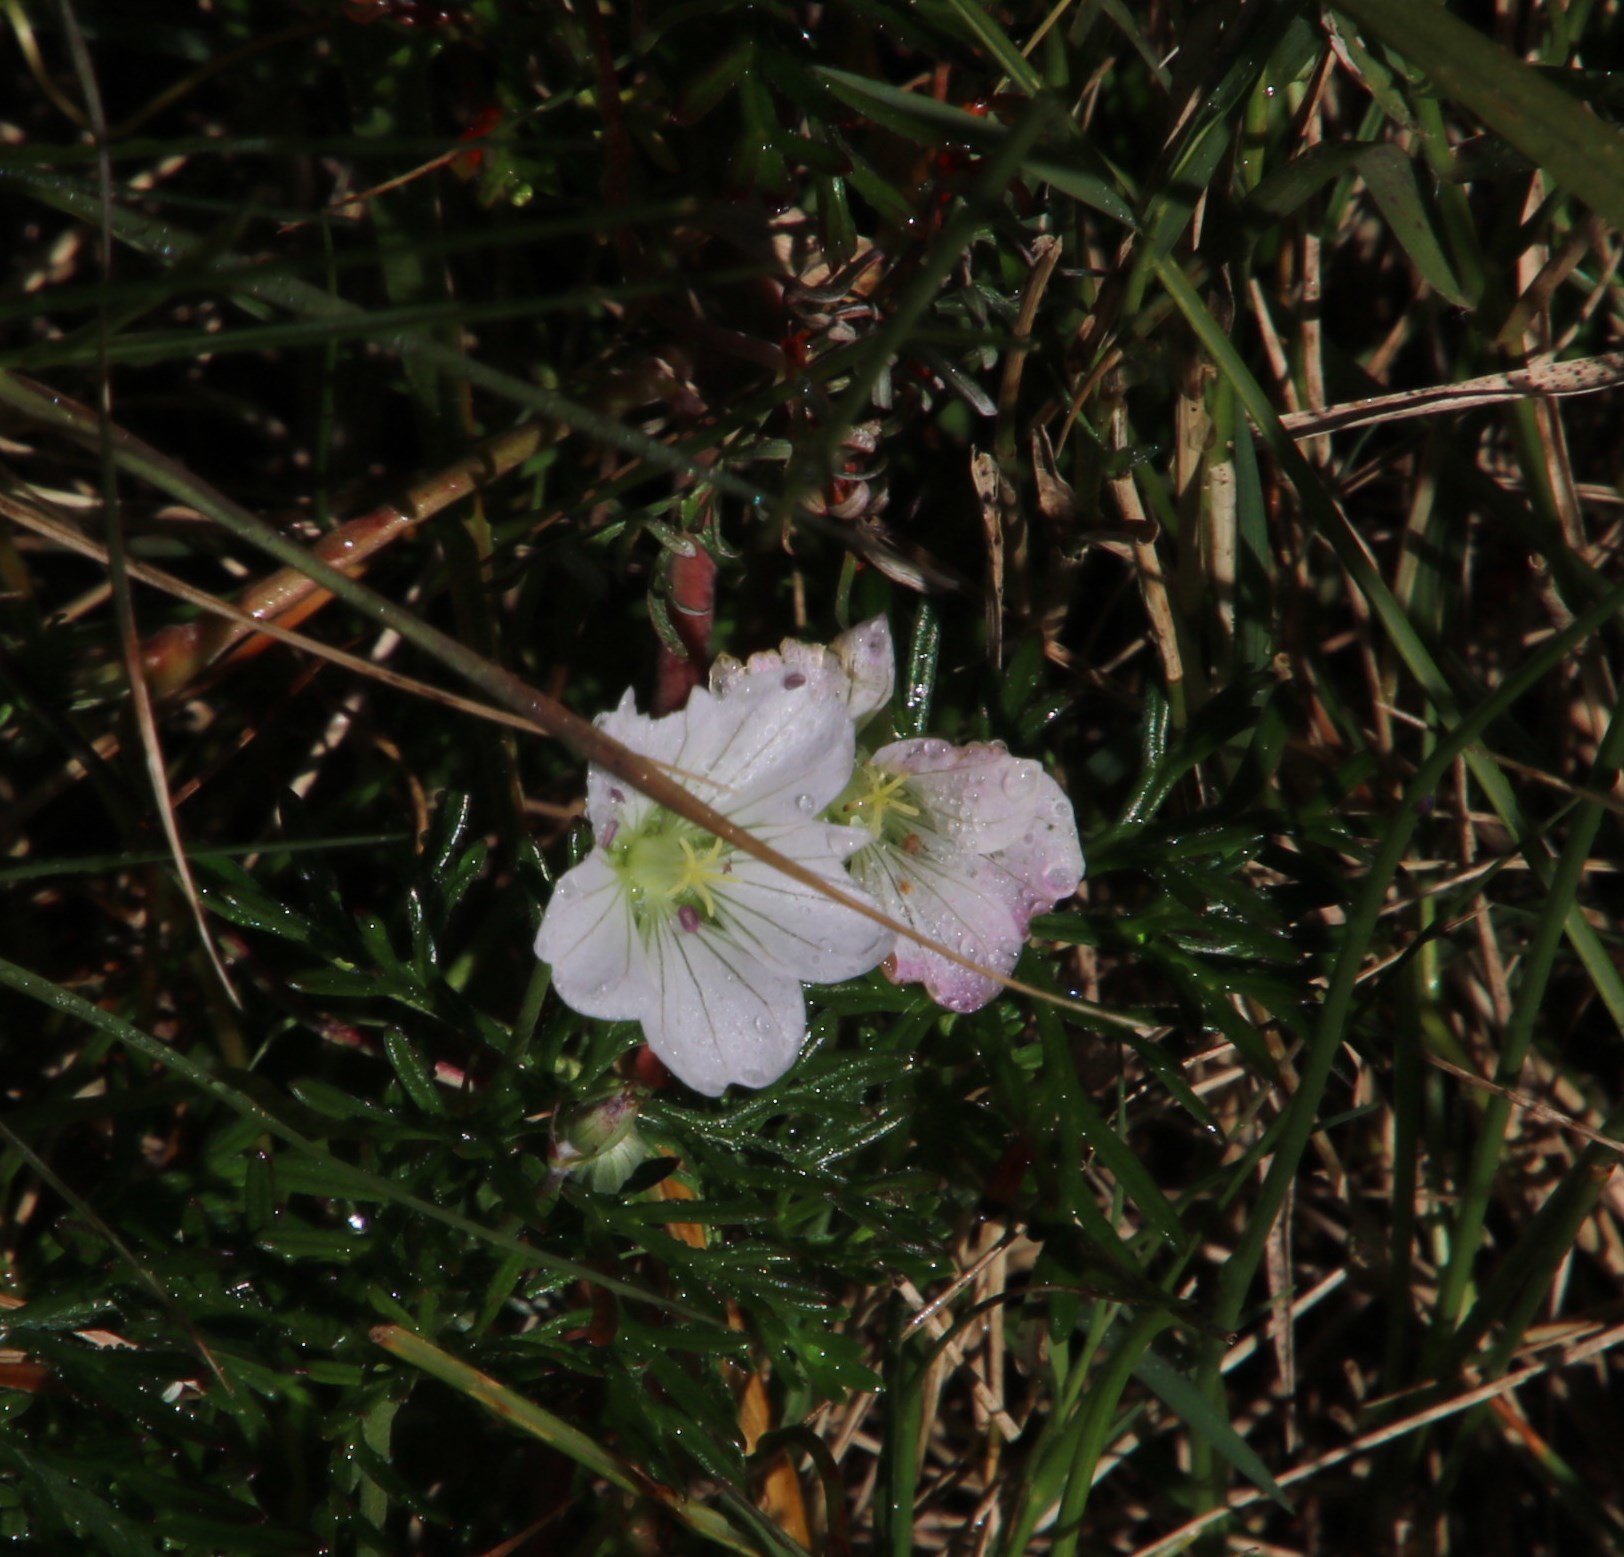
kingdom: Plantae
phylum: Tracheophyta
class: Magnoliopsida
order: Geraniales
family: Geraniaceae
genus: Geranium
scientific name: Geranium incanum
